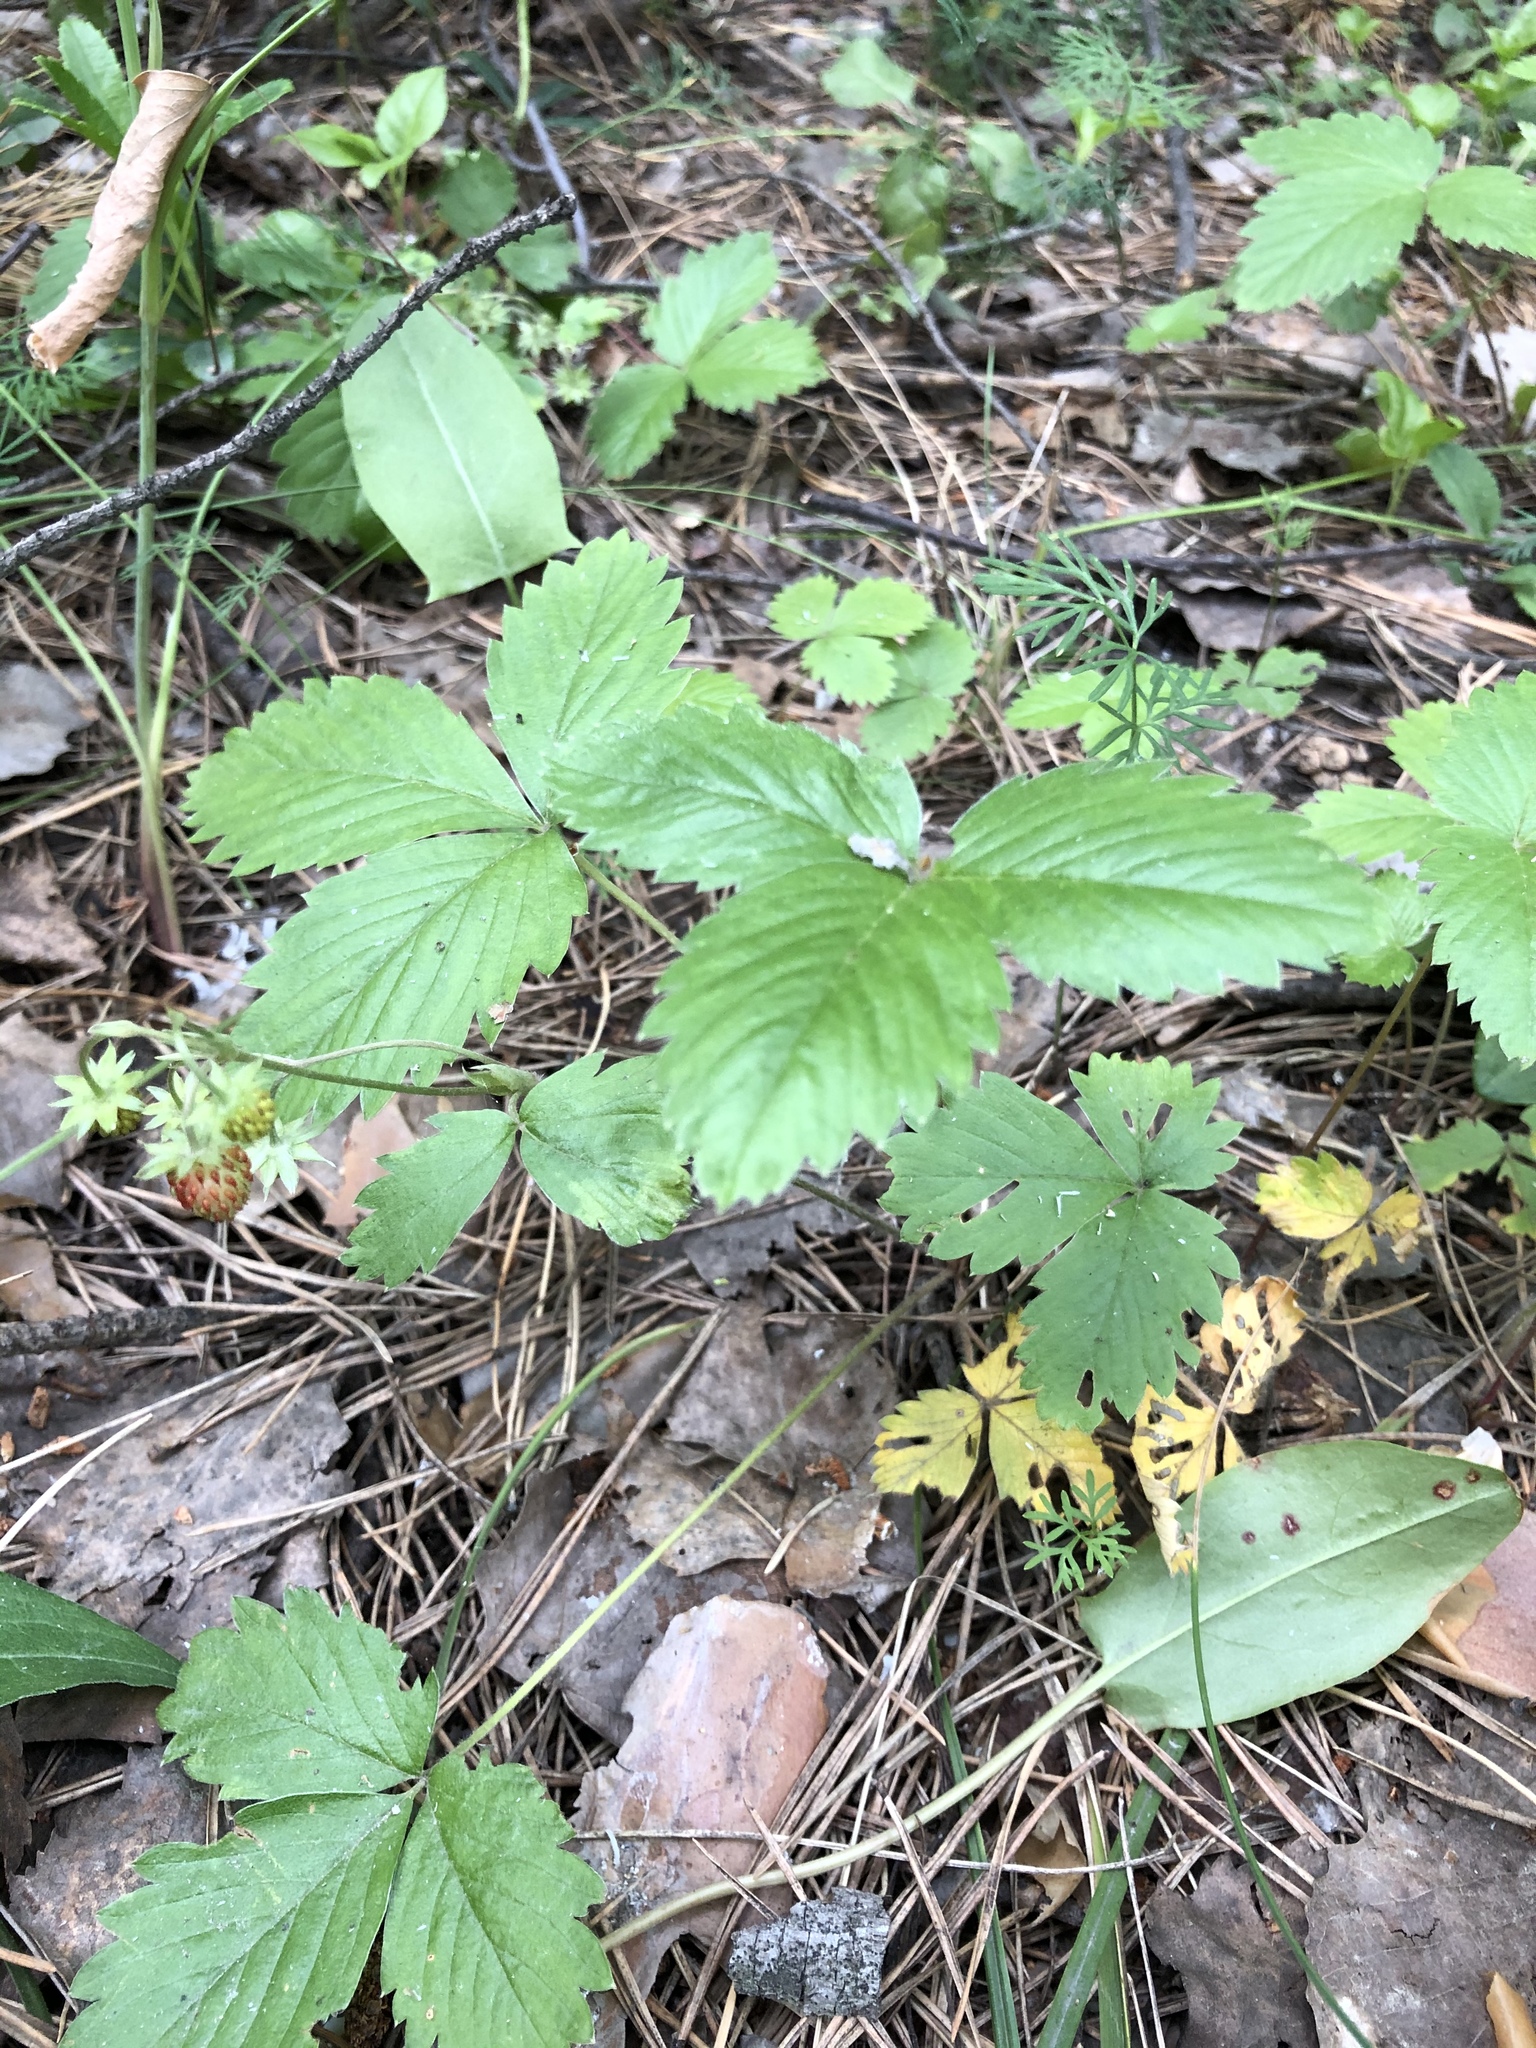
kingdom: Plantae
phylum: Tracheophyta
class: Magnoliopsida
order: Rosales
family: Rosaceae
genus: Fragaria
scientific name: Fragaria vesca
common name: Wild strawberry
